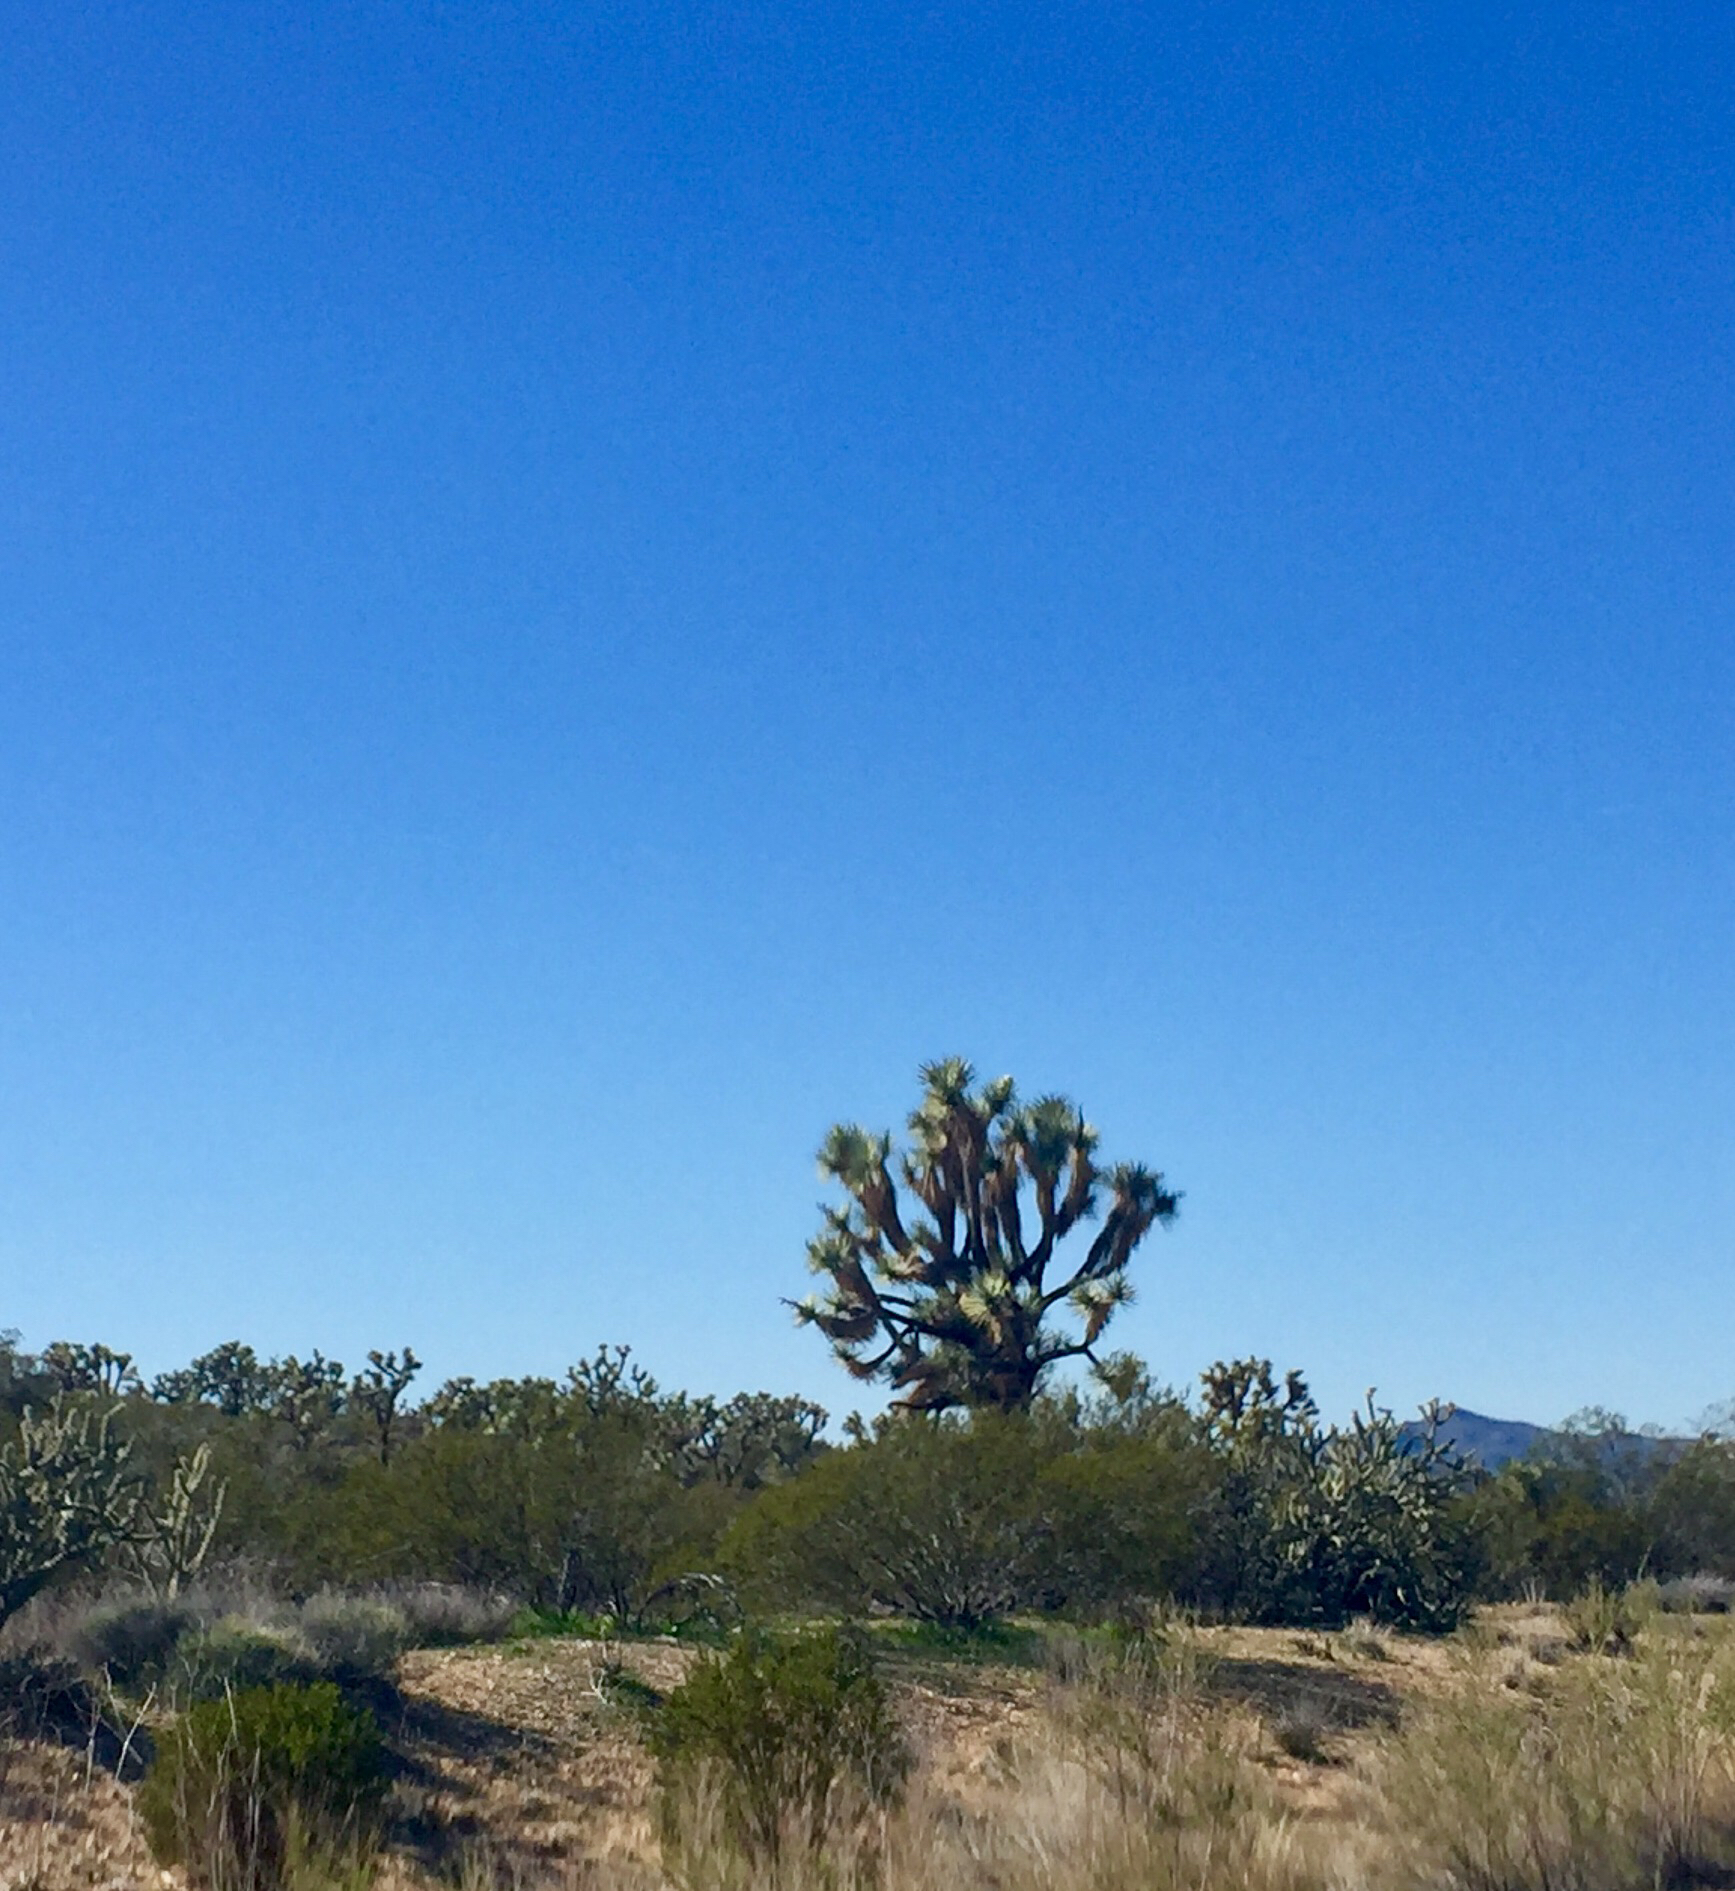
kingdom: Plantae
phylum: Tracheophyta
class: Liliopsida
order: Asparagales
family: Asparagaceae
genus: Yucca
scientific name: Yucca brevifolia
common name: Joshua tree
